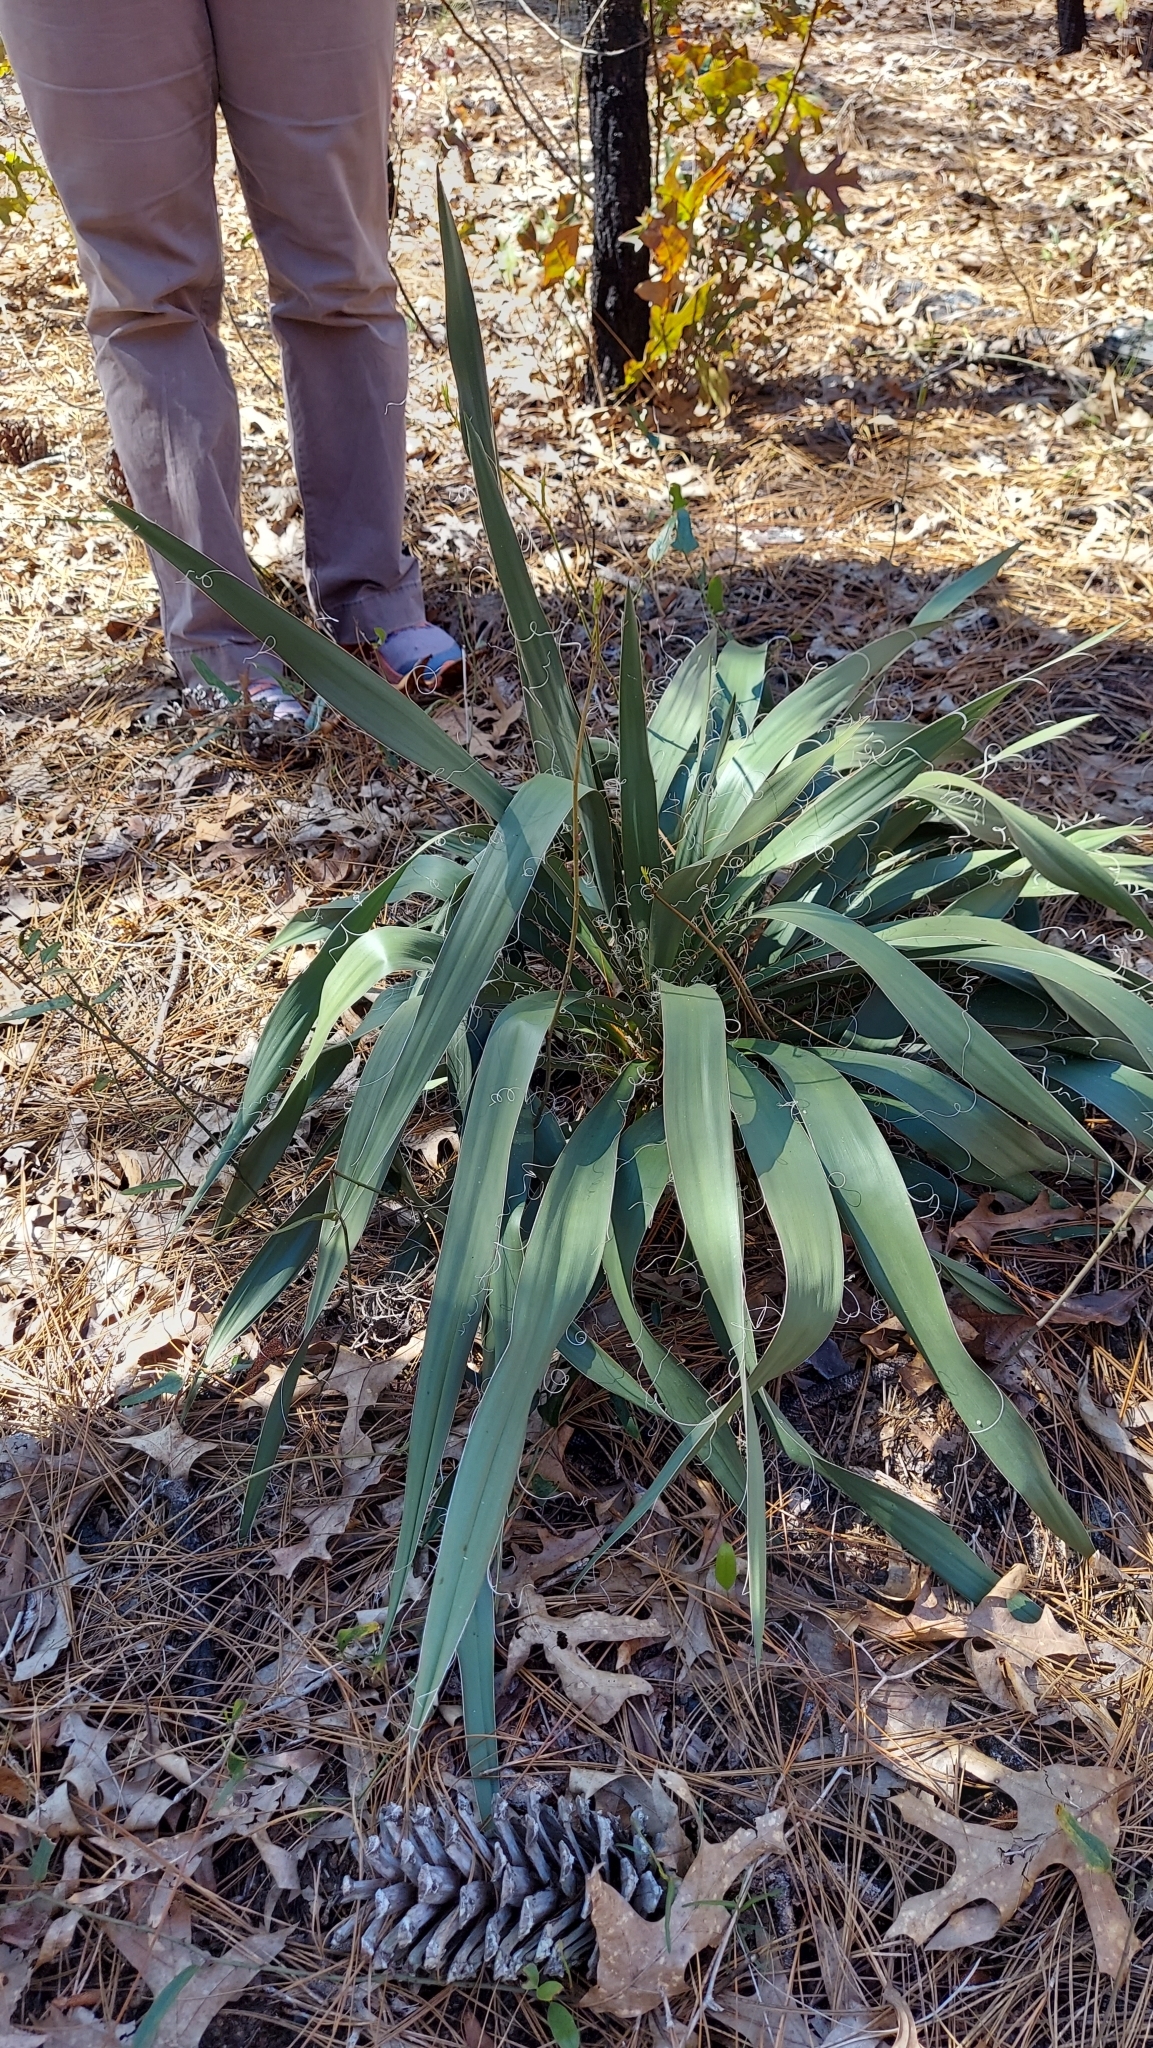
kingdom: Plantae
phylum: Tracheophyta
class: Liliopsida
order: Asparagales
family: Asparagaceae
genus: Yucca
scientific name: Yucca filamentosa
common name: Adam's-needle
